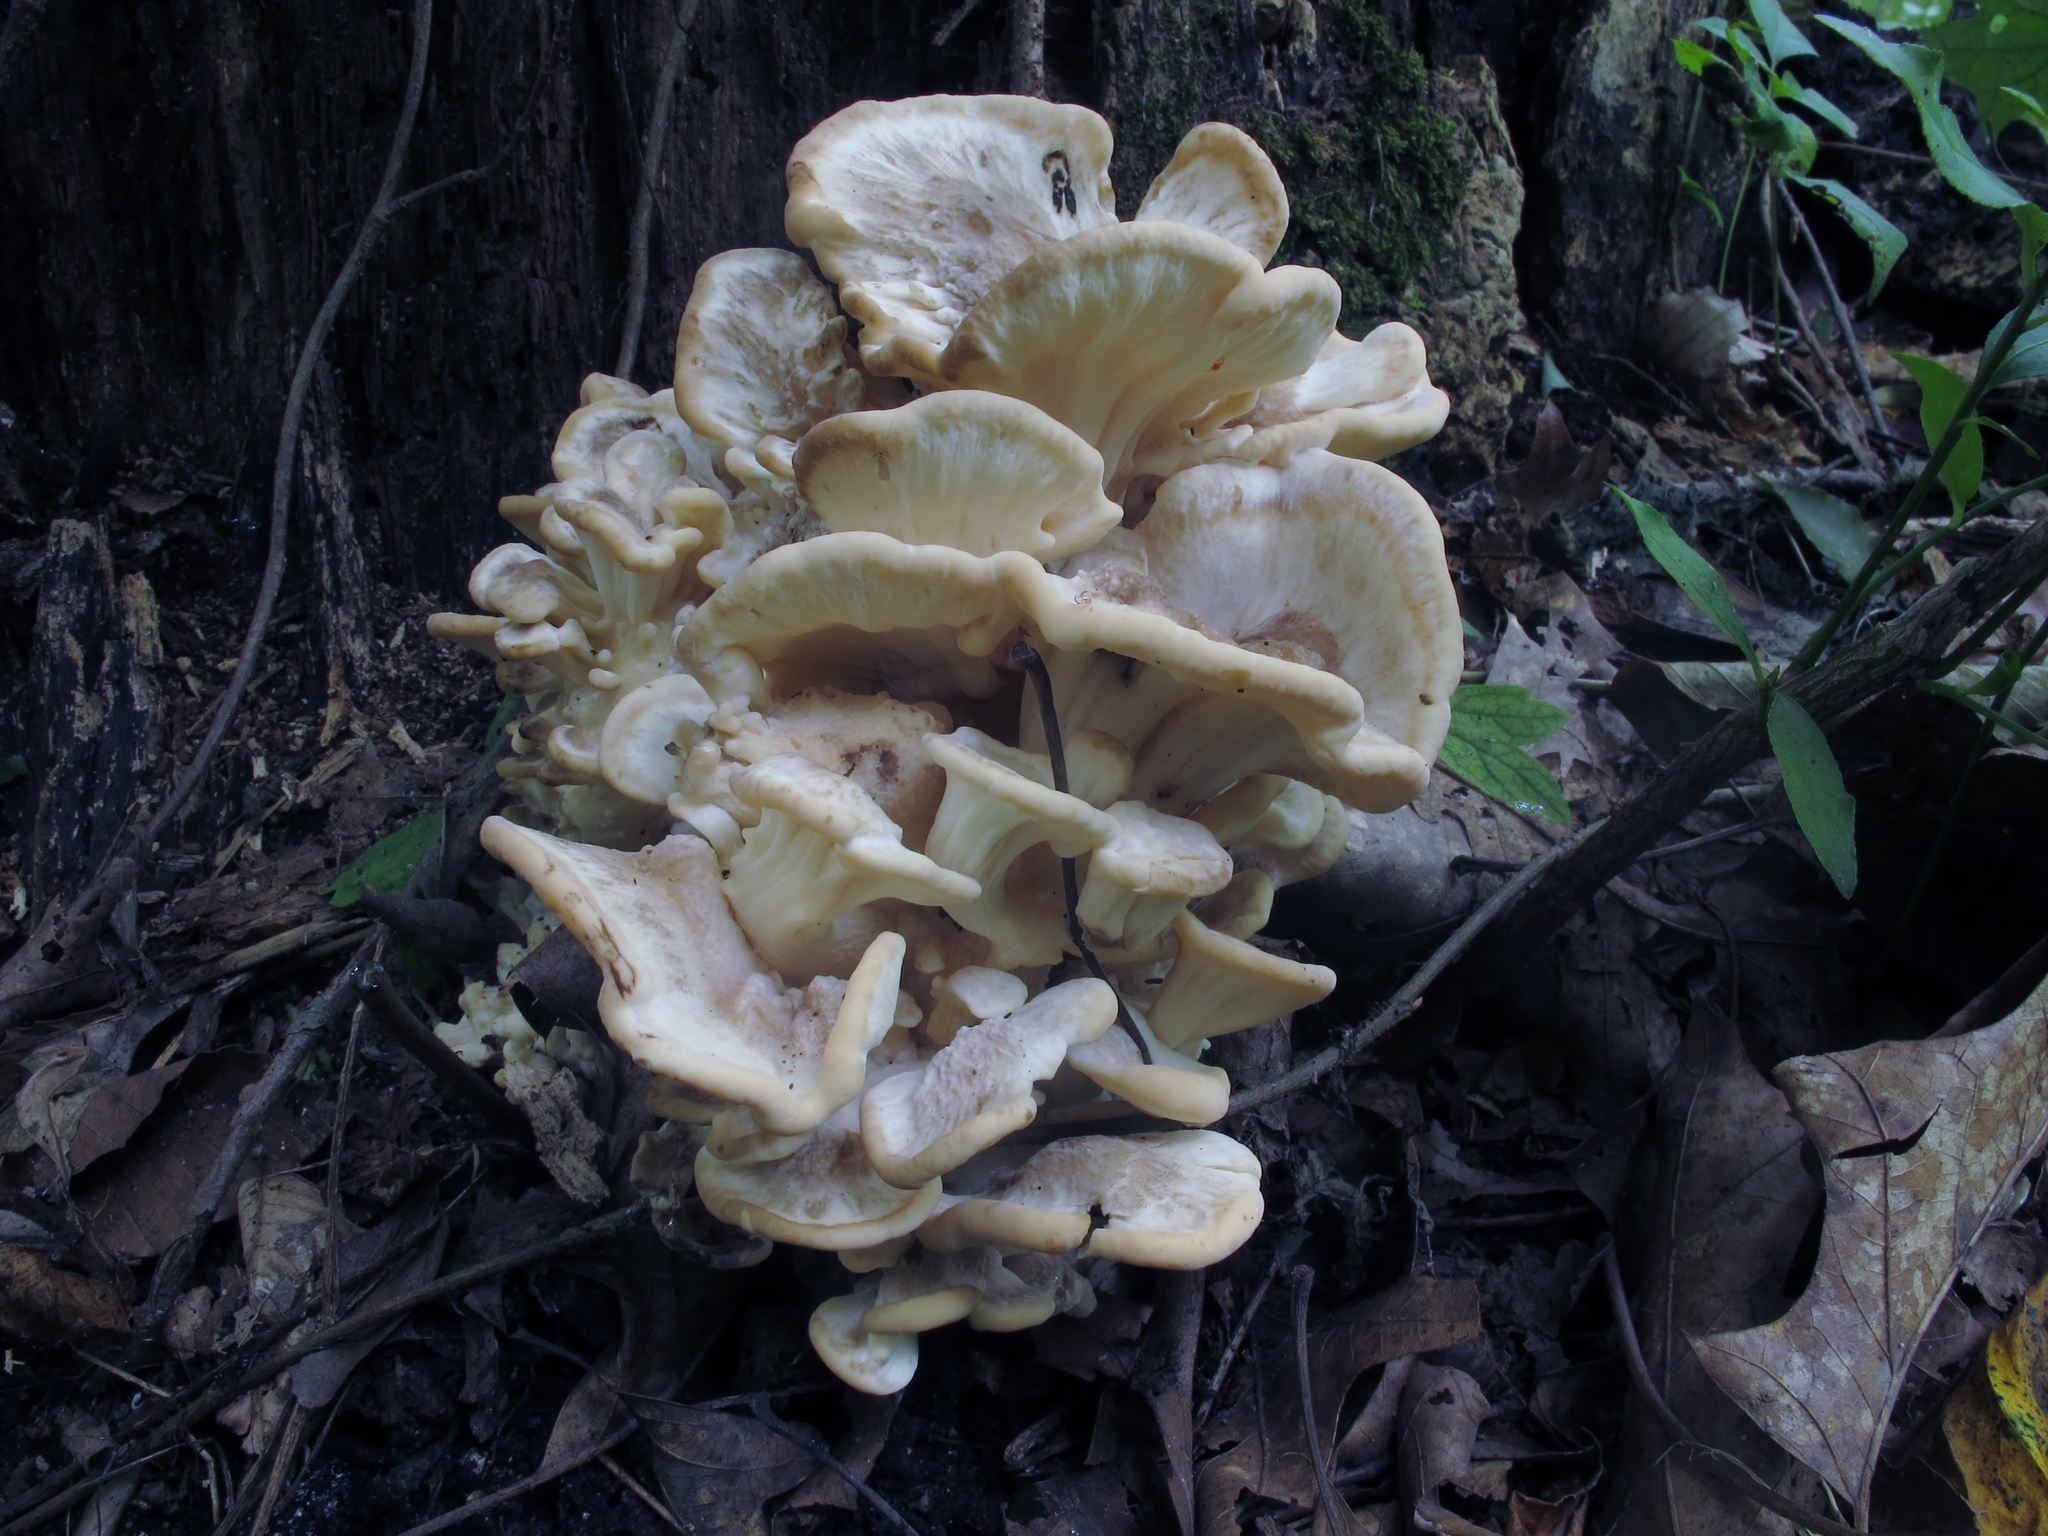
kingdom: Fungi
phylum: Basidiomycota
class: Agaricomycetes
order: Polyporales
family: Meripilaceae
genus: Meripilus
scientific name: Meripilus sumstinei
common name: Black-staining polypore
